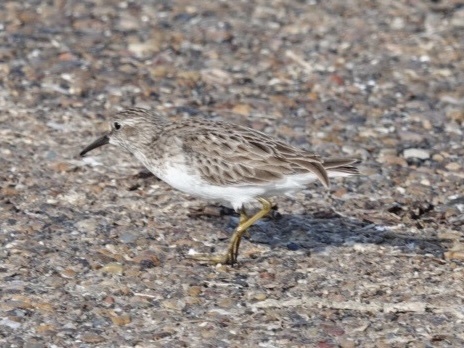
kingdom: Animalia
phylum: Chordata
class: Aves
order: Charadriiformes
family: Scolopacidae
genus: Calidris
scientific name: Calidris minutilla
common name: Least sandpiper
